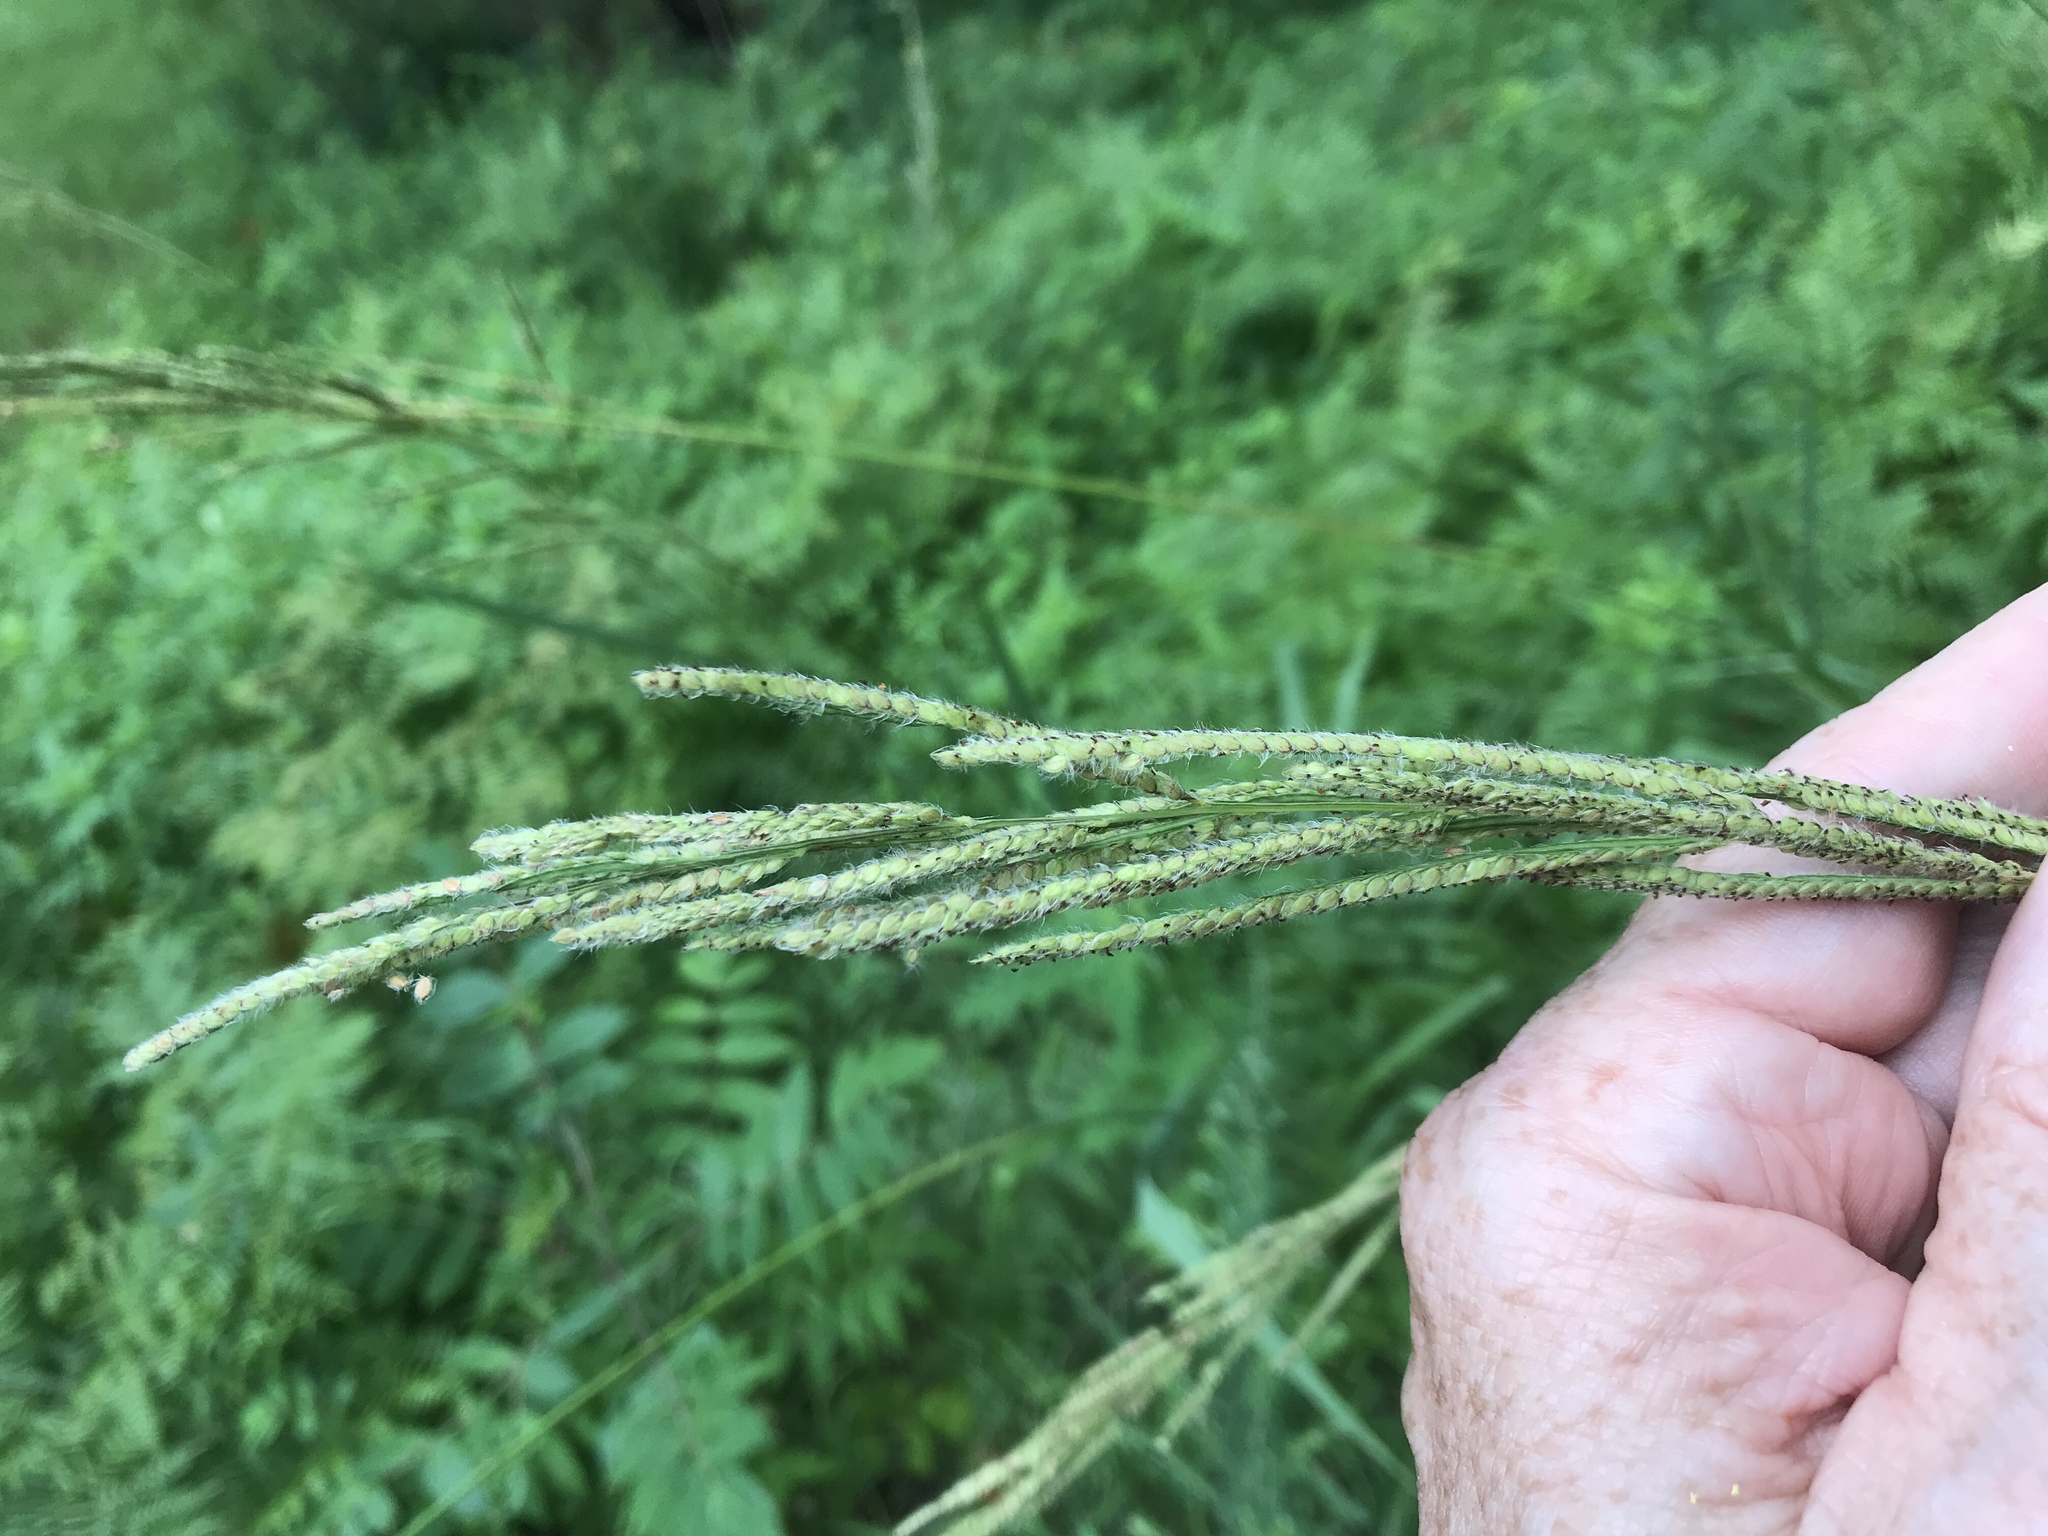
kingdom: Plantae
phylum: Tracheophyta
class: Liliopsida
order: Poales
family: Poaceae
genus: Paspalum
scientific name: Paspalum urvillei
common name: Vasey's grass
